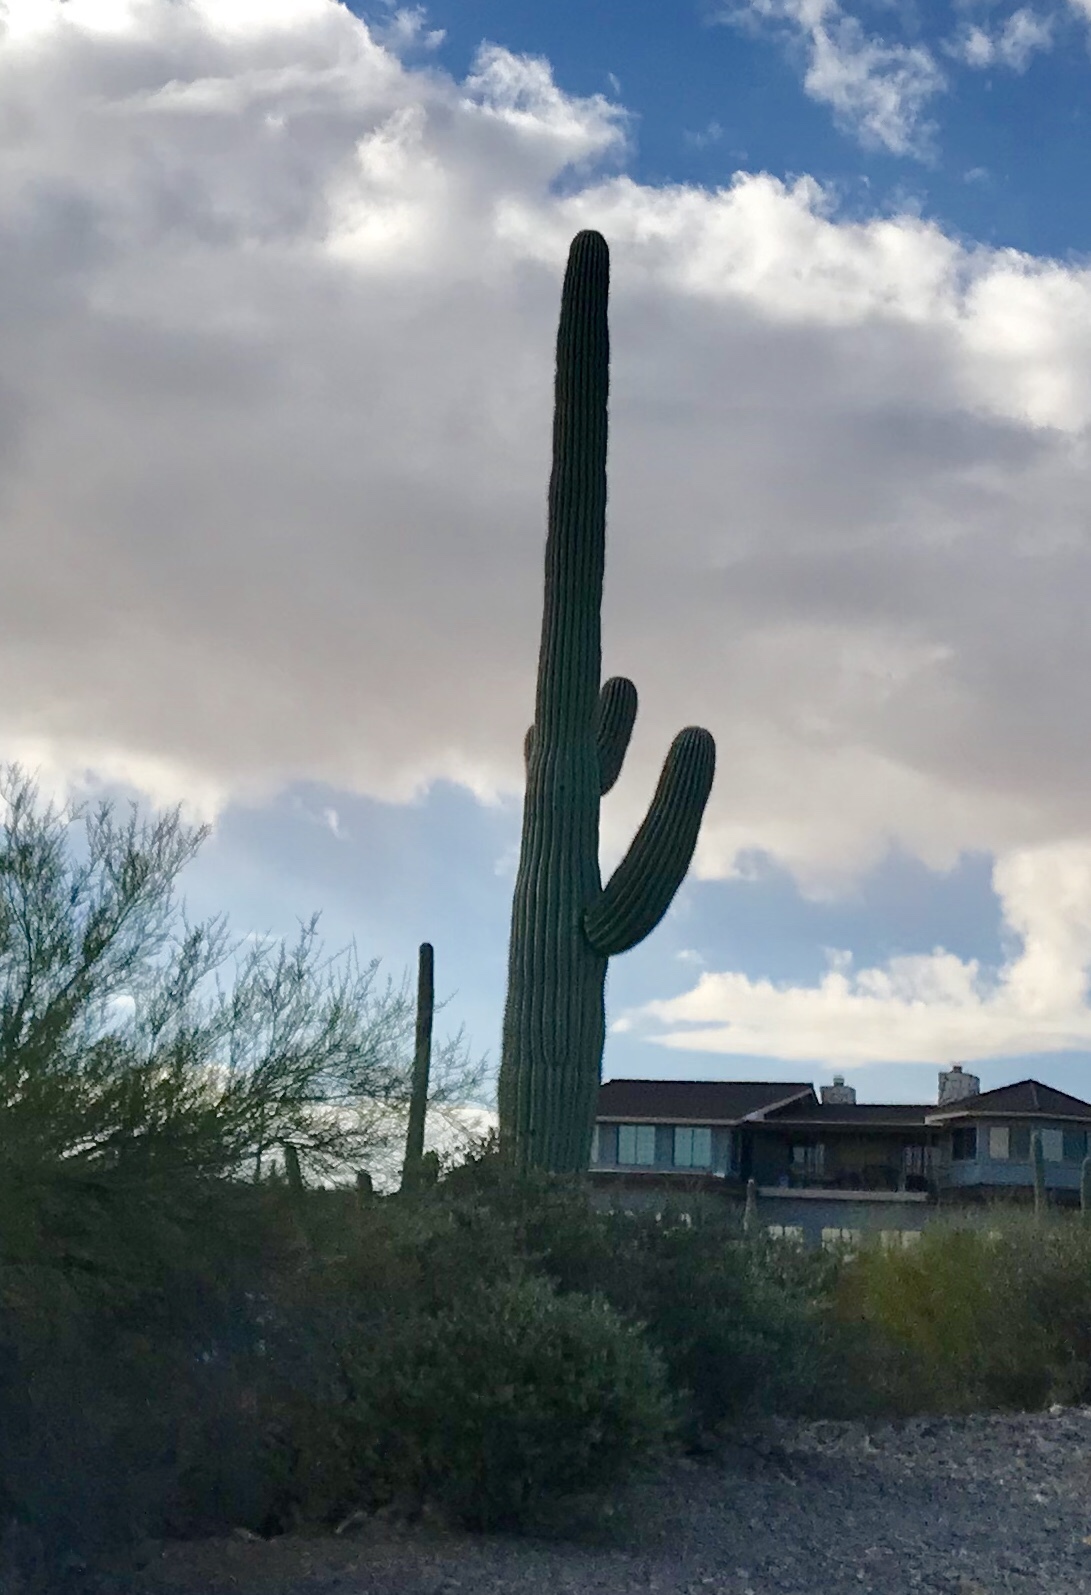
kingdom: Plantae
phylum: Tracheophyta
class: Magnoliopsida
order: Caryophyllales
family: Cactaceae
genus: Carnegiea
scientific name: Carnegiea gigantea
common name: Saguaro
